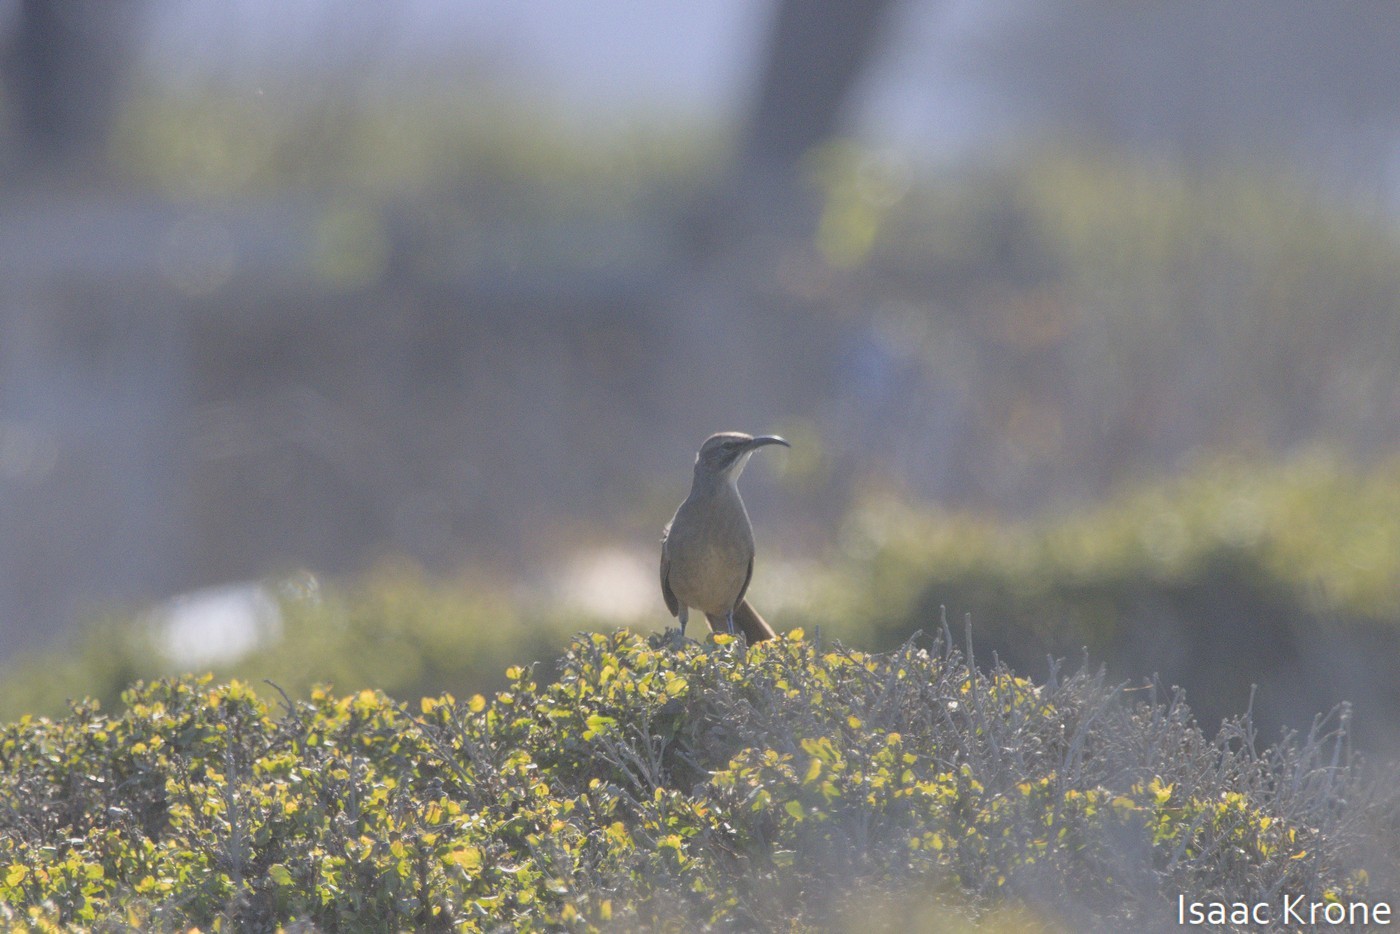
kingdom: Animalia
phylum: Chordata
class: Aves
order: Passeriformes
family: Mimidae
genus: Toxostoma
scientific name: Toxostoma redivivum
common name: California thrasher
